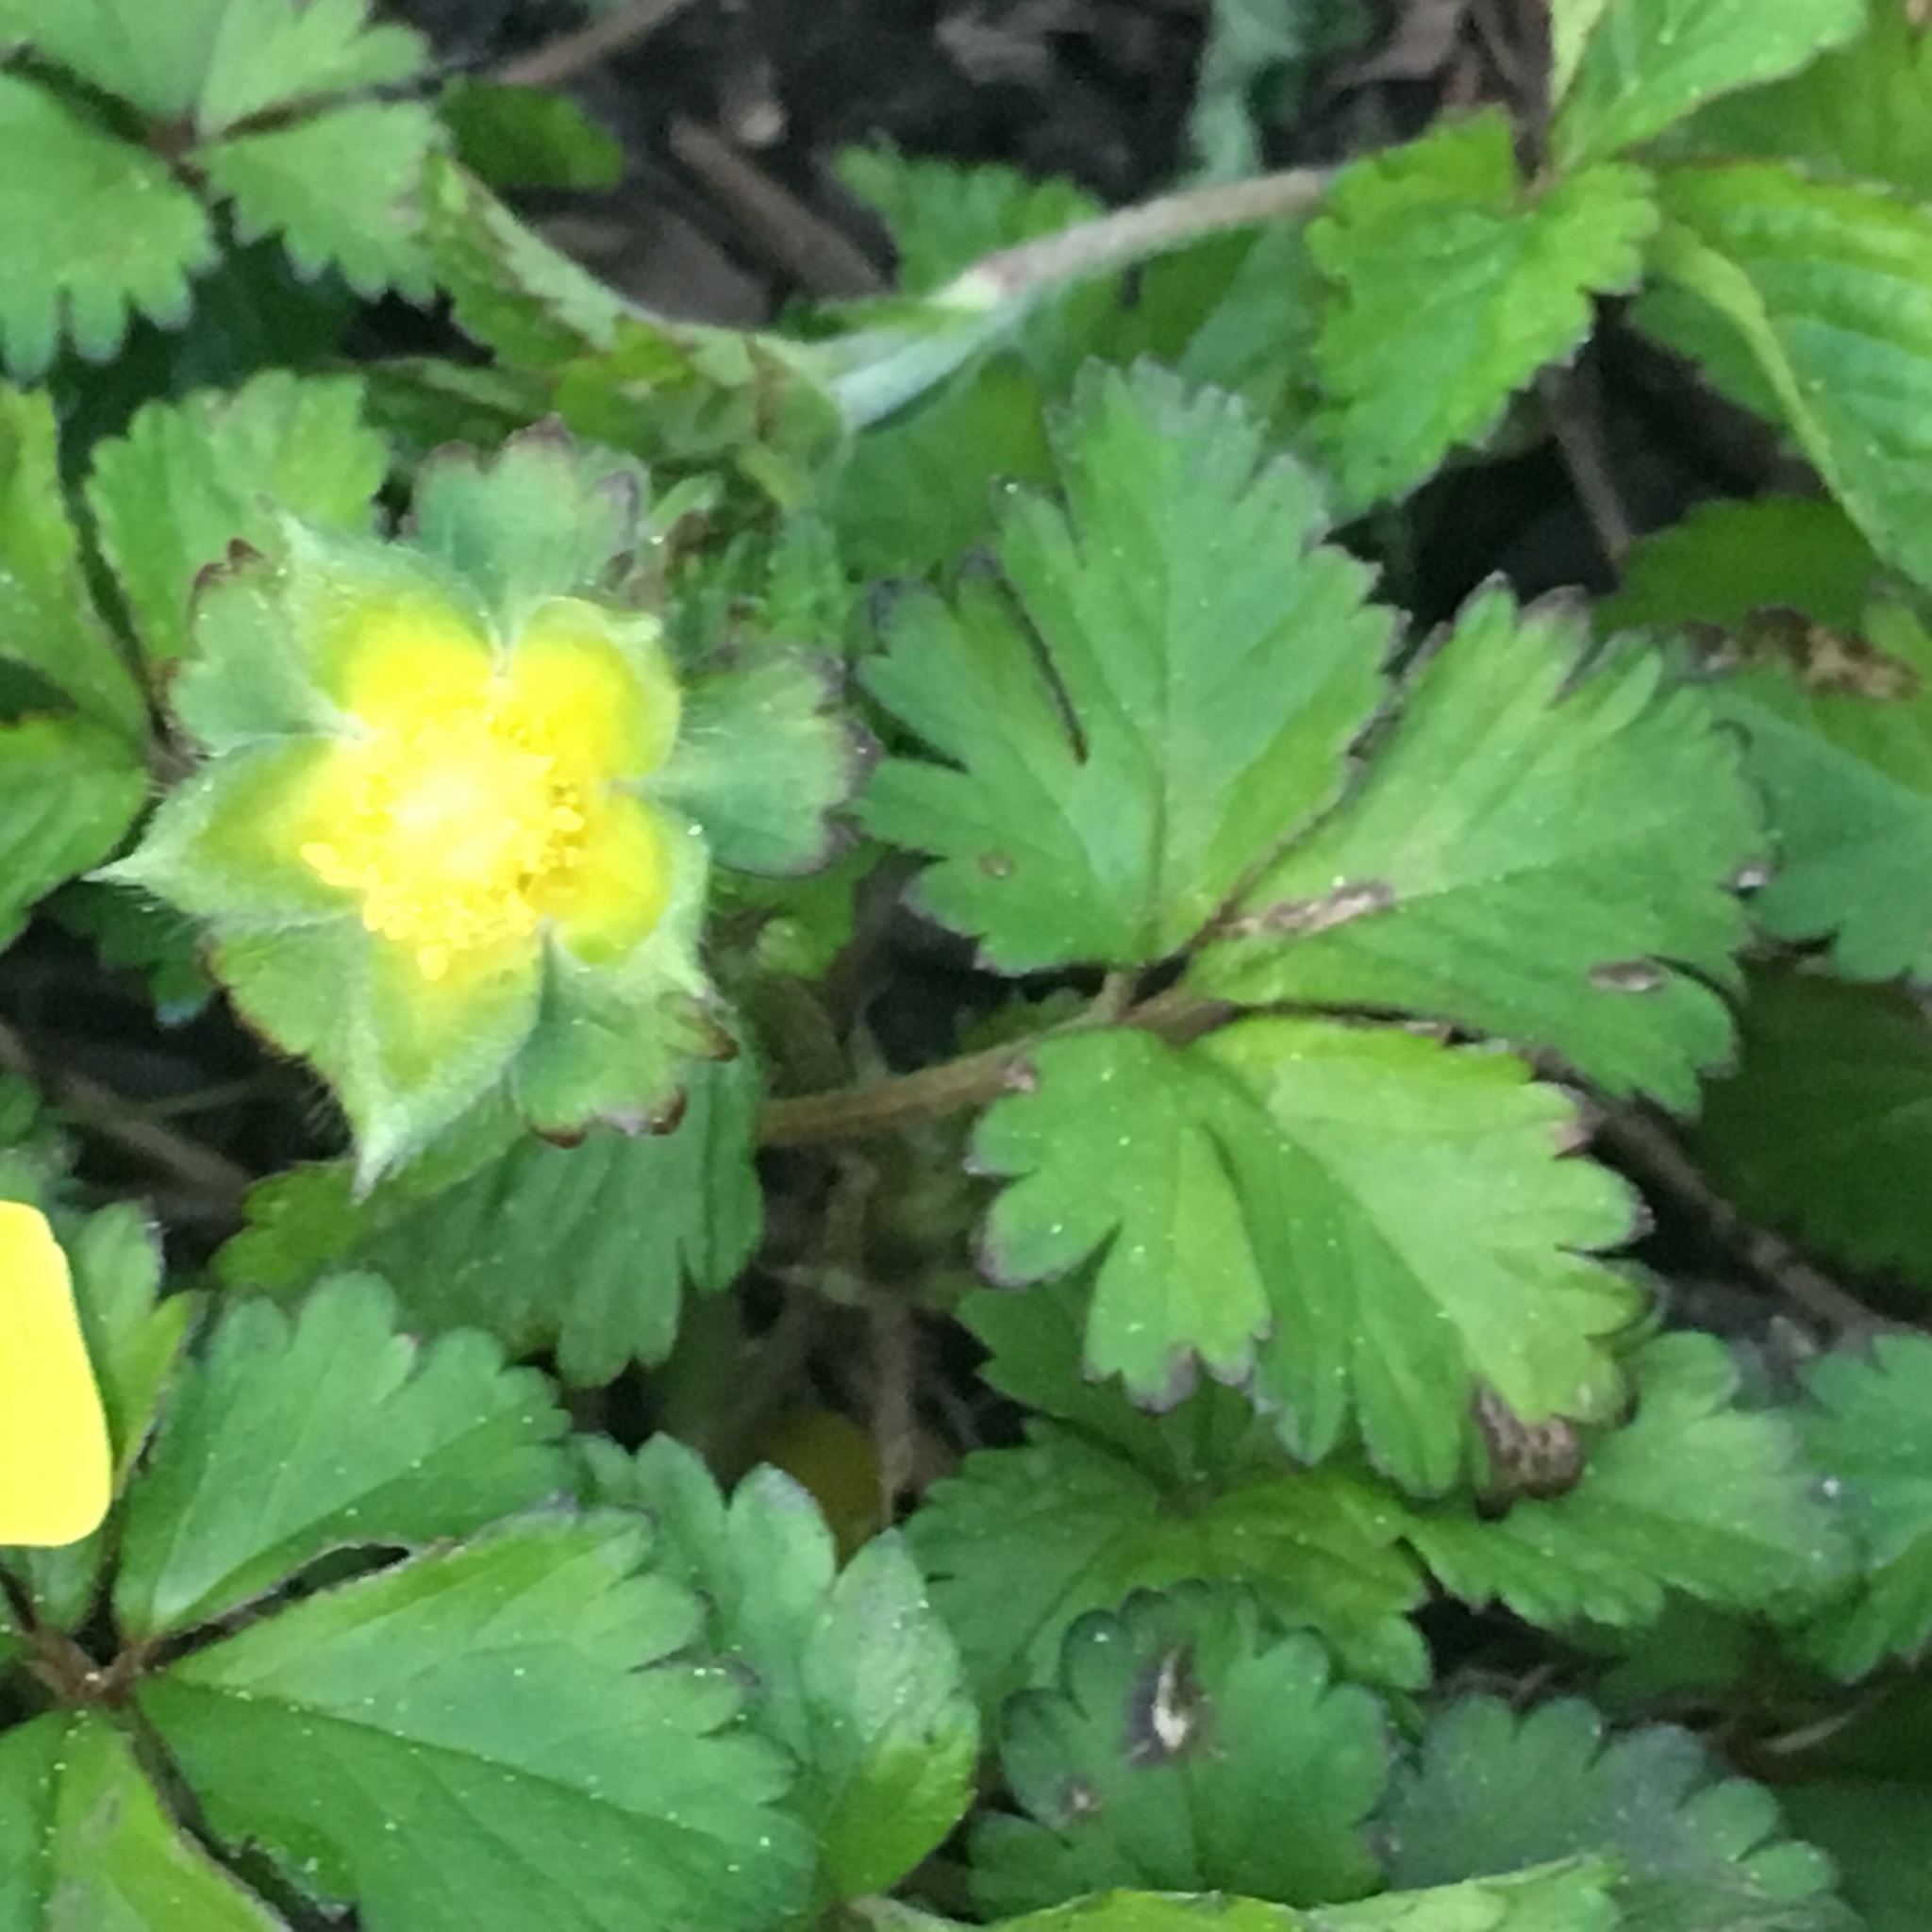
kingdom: Plantae
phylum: Tracheophyta
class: Magnoliopsida
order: Rosales
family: Rosaceae
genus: Potentilla
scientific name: Potentilla indica
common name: Yellow-flowered strawberry
